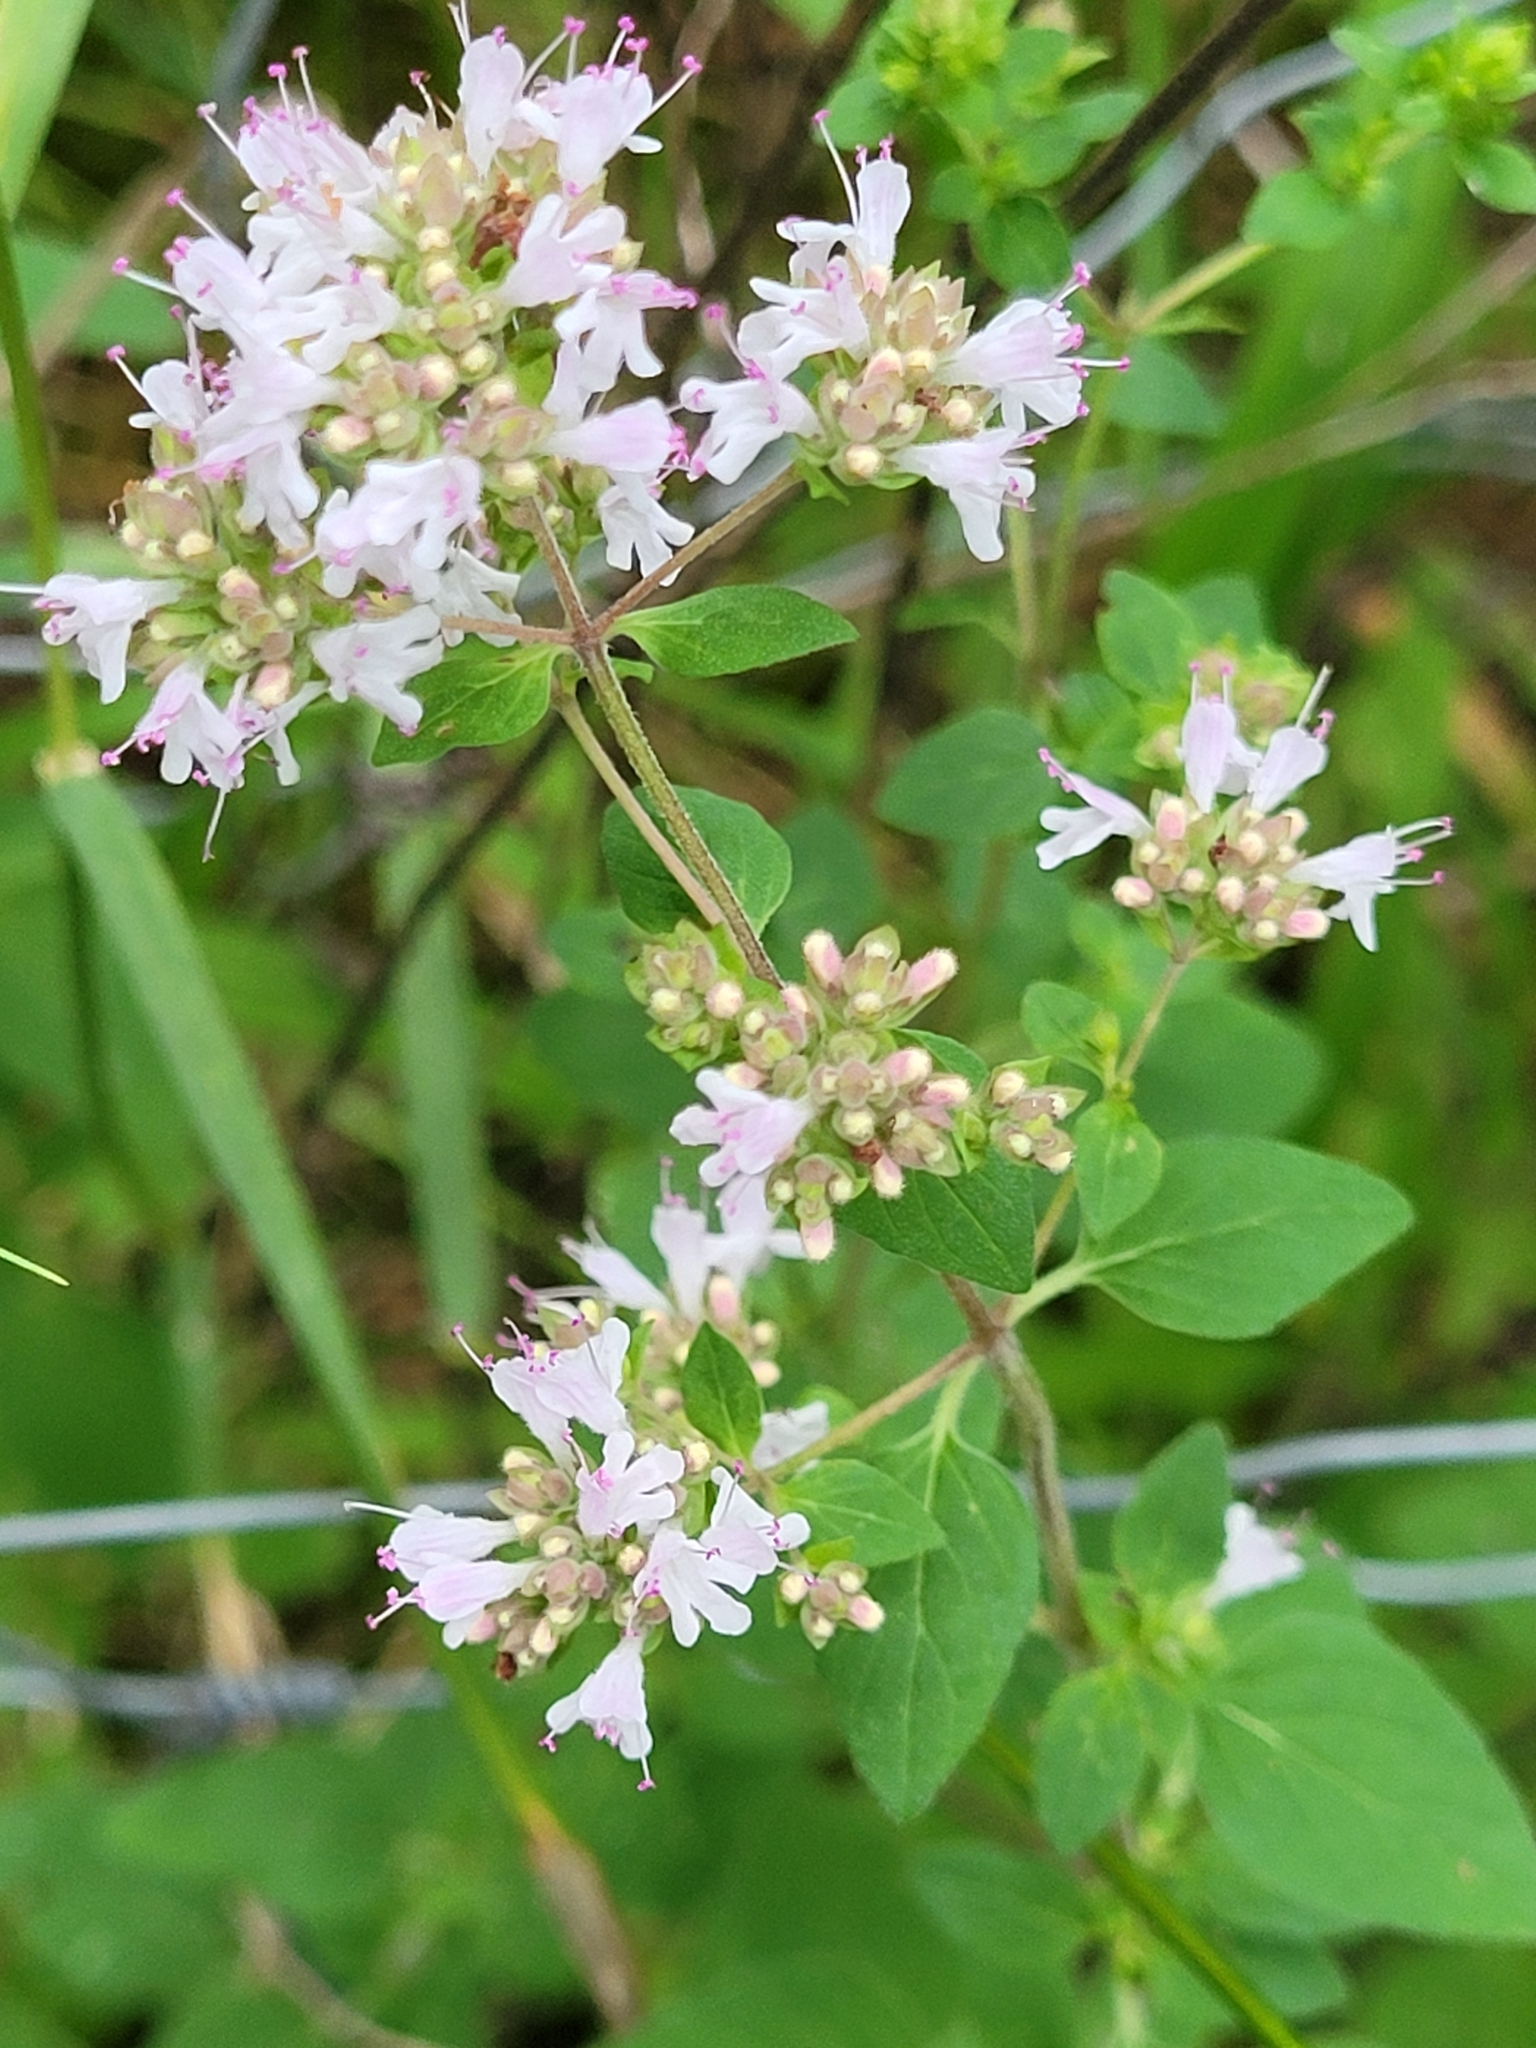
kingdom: Plantae
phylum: Tracheophyta
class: Magnoliopsida
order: Lamiales
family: Lamiaceae
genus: Origanum
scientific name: Origanum vulgare
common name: Wild marjoram
